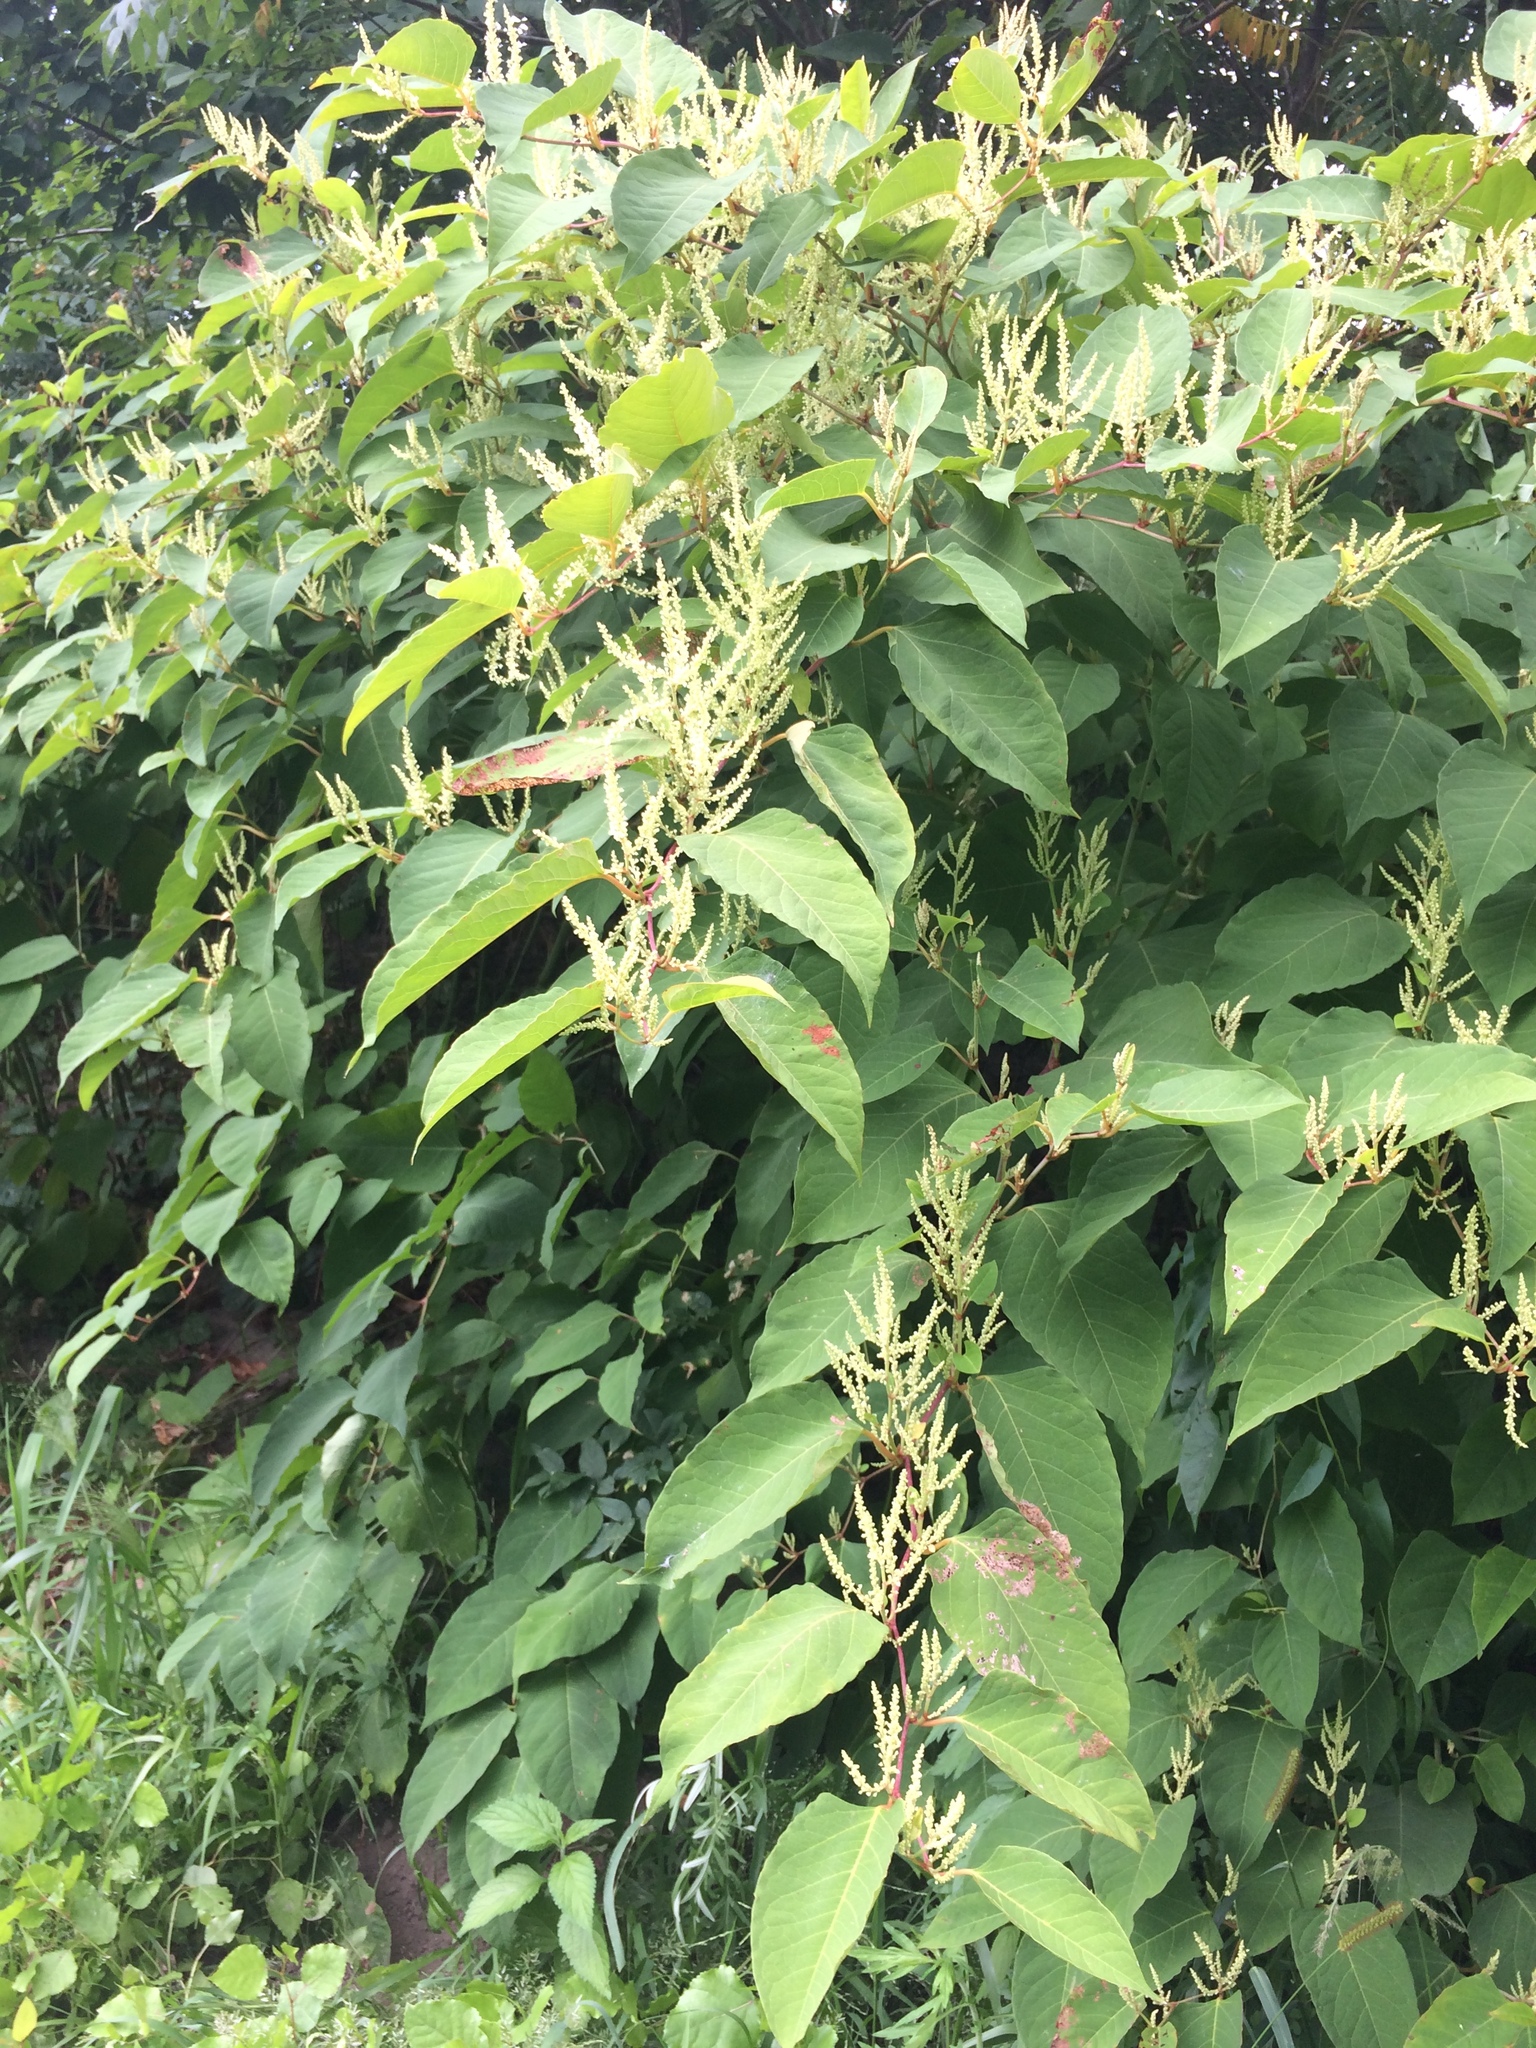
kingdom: Plantae
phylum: Tracheophyta
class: Magnoliopsida
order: Caryophyllales
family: Polygonaceae
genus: Reynoutria
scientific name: Reynoutria japonica
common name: Japanese knotweed
